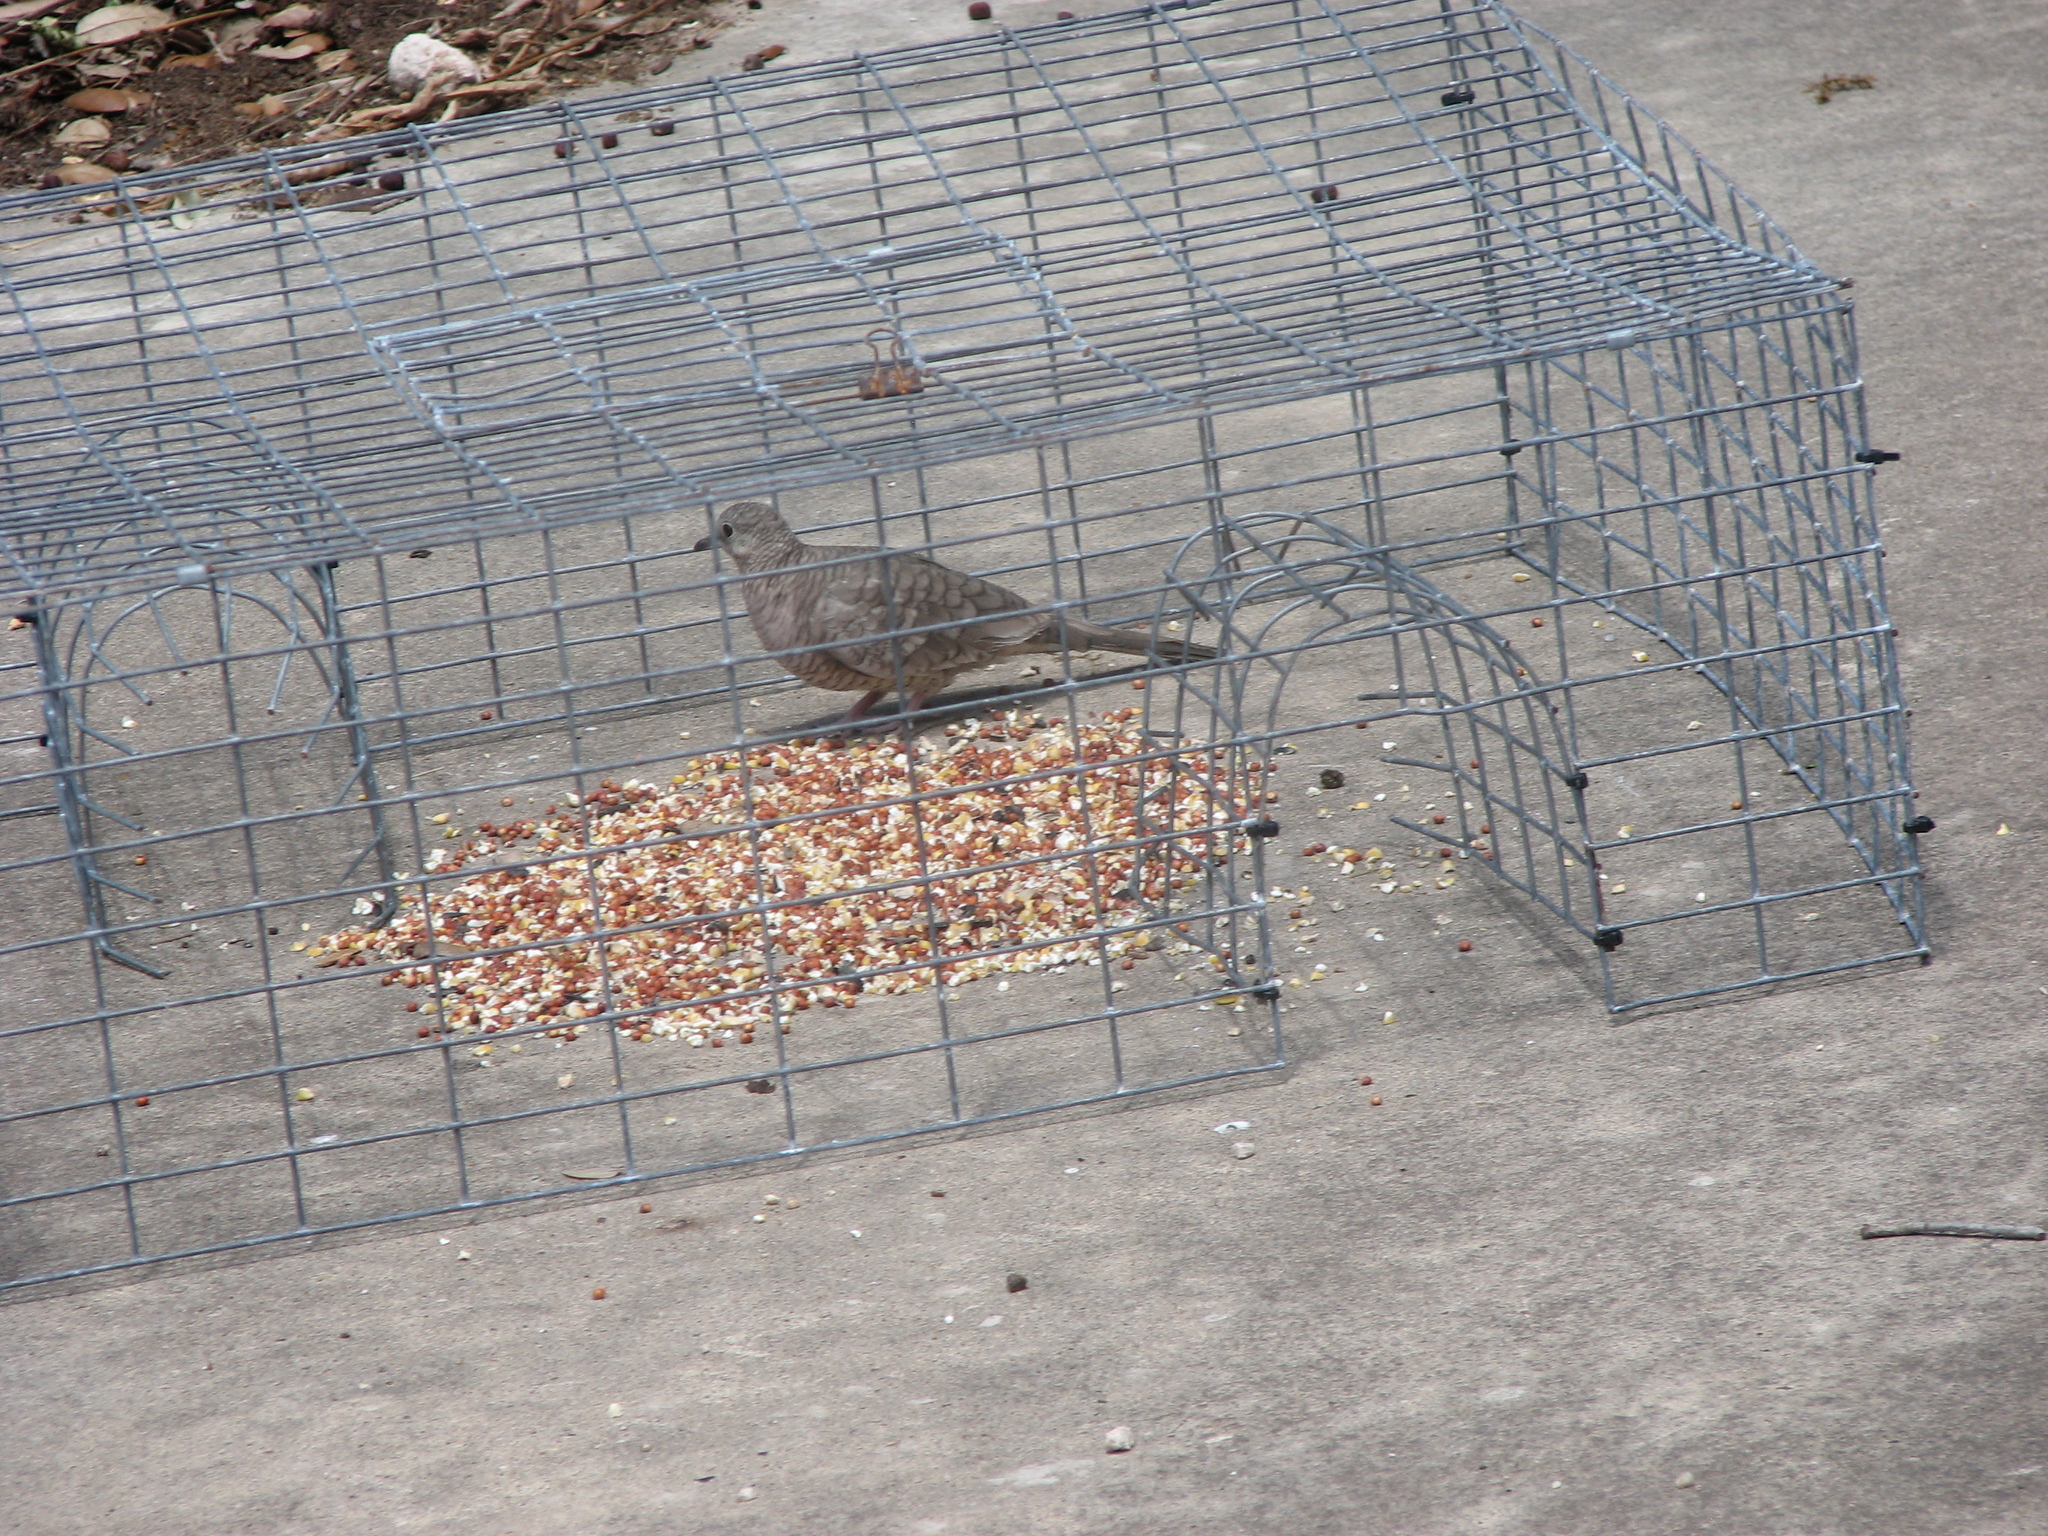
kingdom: Animalia
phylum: Chordata
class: Aves
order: Columbiformes
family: Columbidae
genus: Columbina
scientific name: Columbina inca
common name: Inca dove
